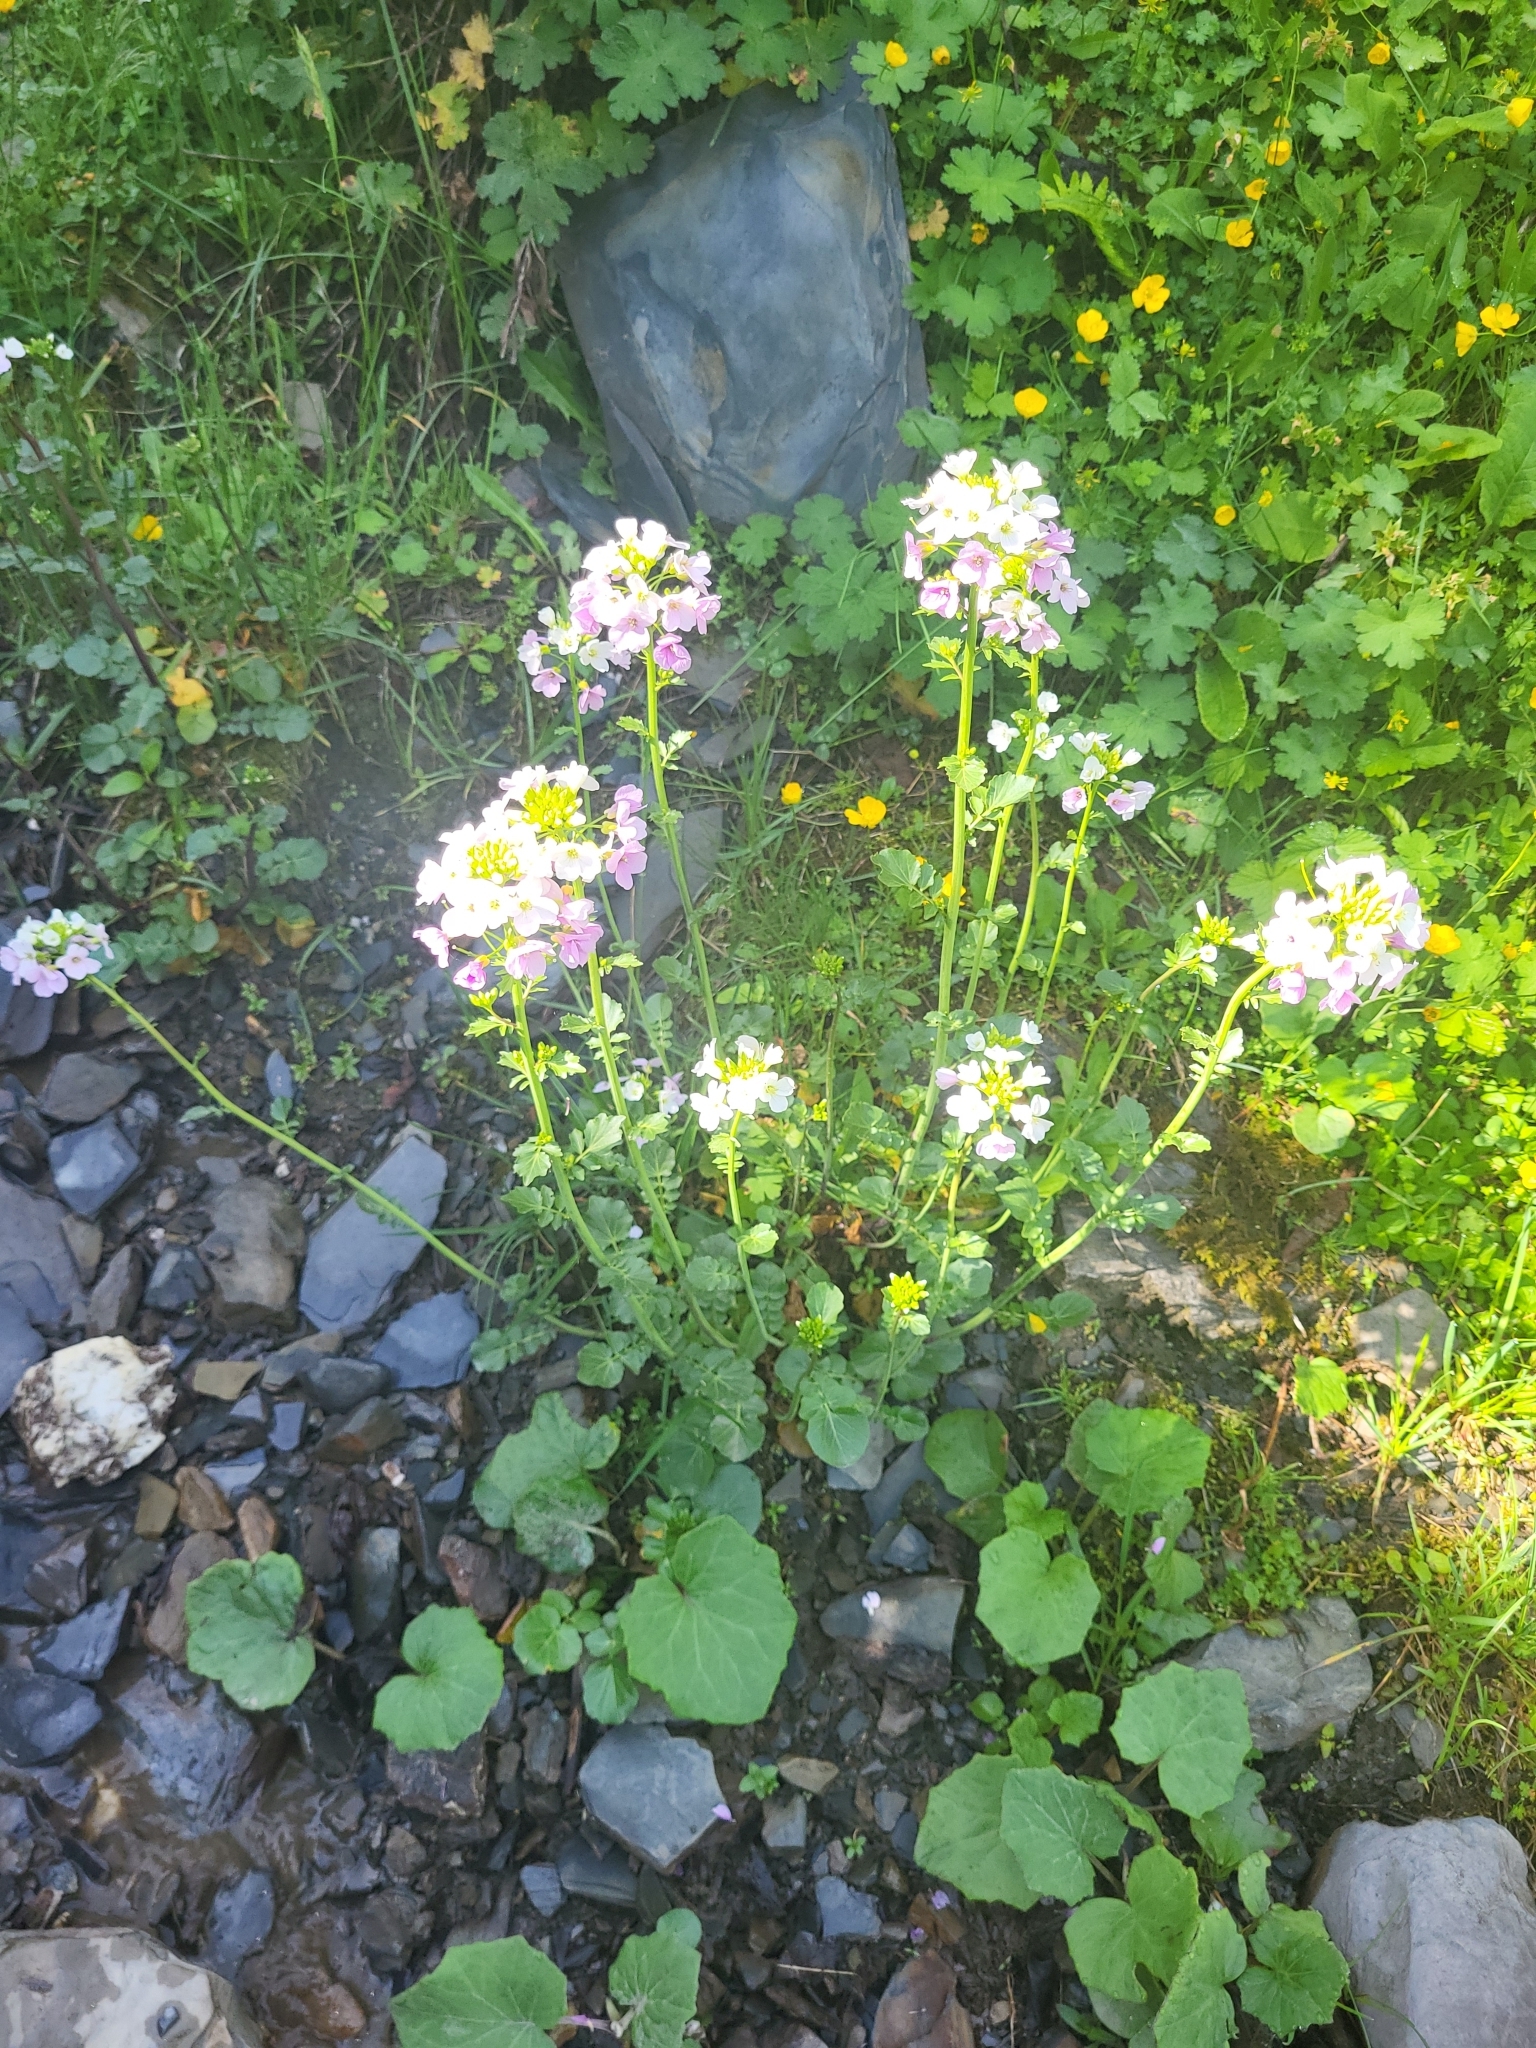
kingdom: Plantae
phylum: Tracheophyta
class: Magnoliopsida
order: Brassicales
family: Brassicaceae
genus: Cardamine
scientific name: Cardamine uliginosa
